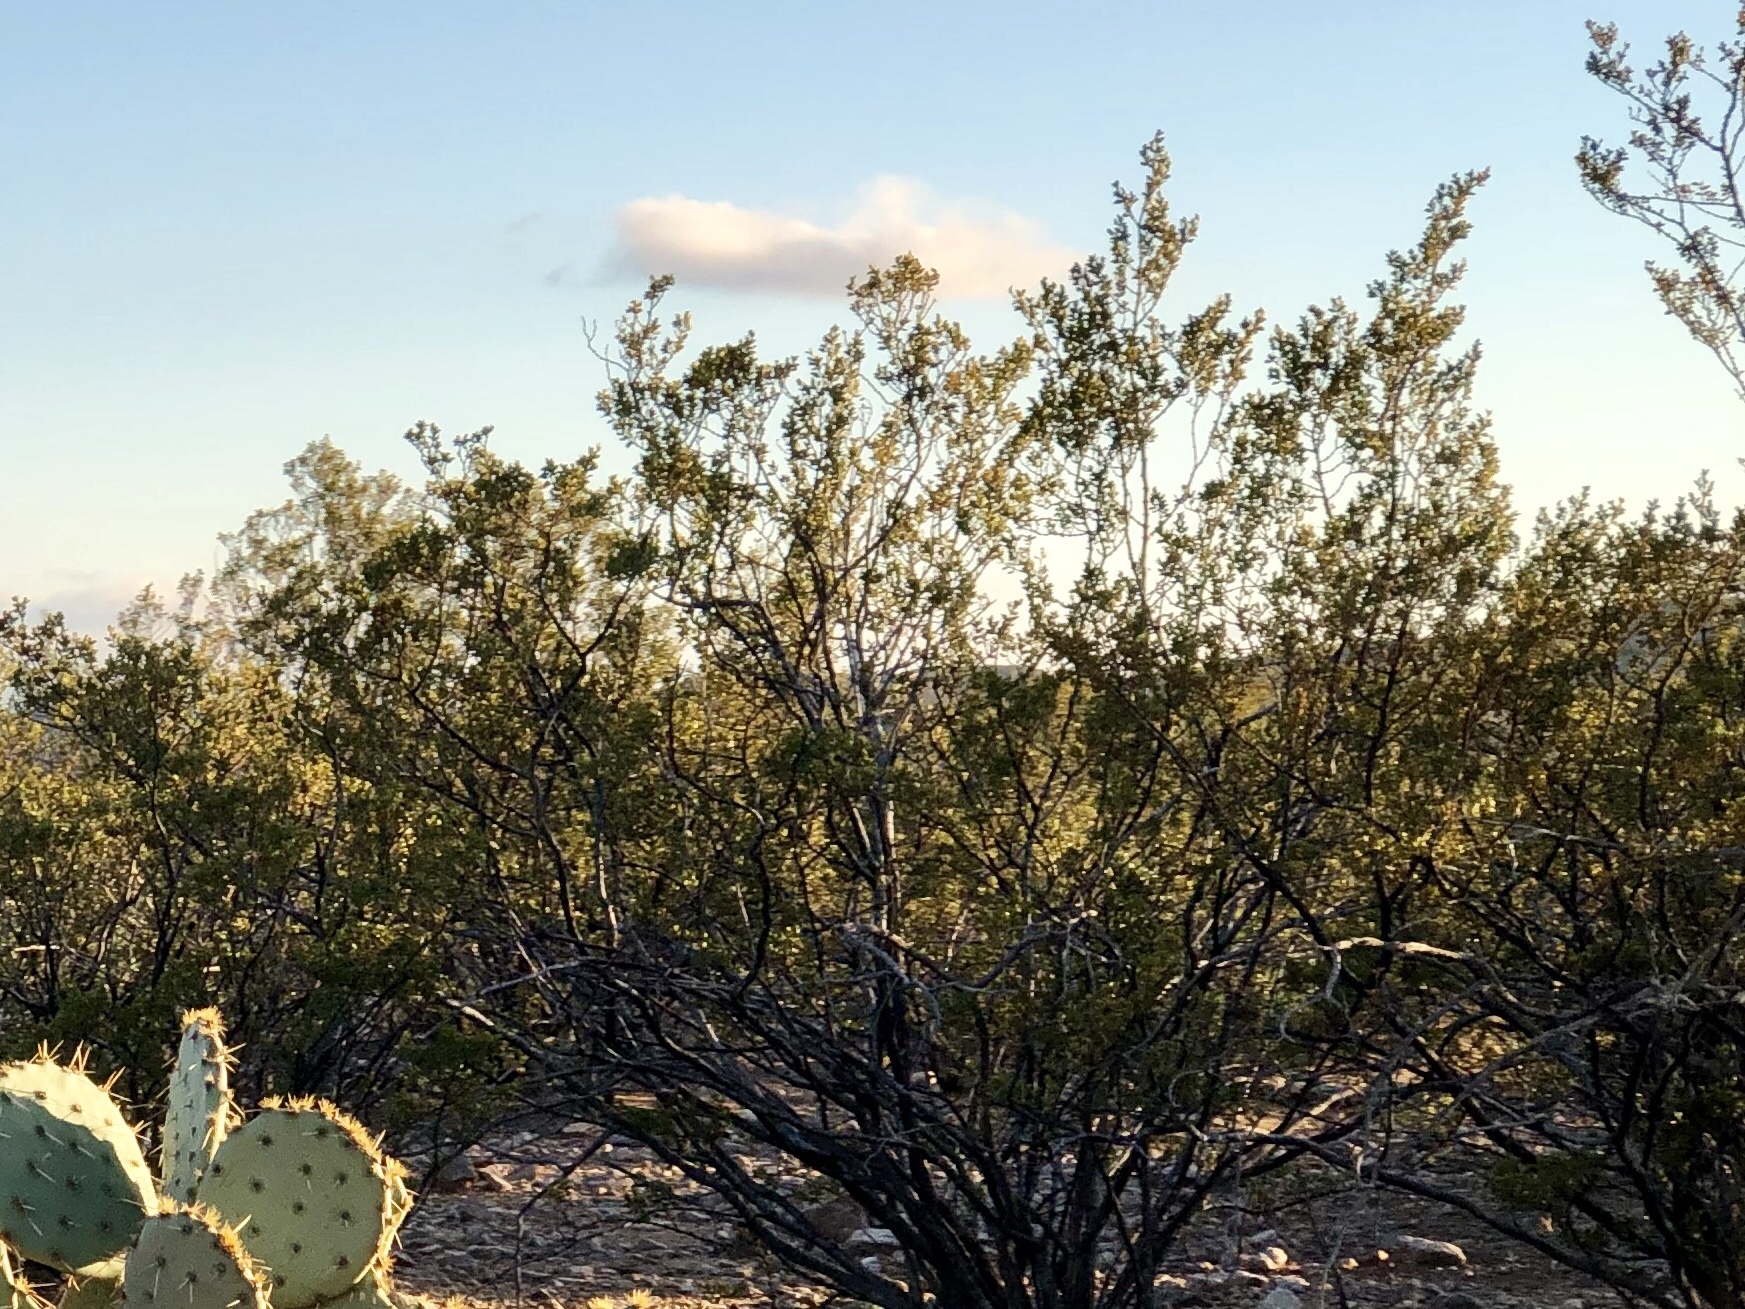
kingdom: Plantae
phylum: Tracheophyta
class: Magnoliopsida
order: Zygophyllales
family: Zygophyllaceae
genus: Larrea
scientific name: Larrea tridentata
